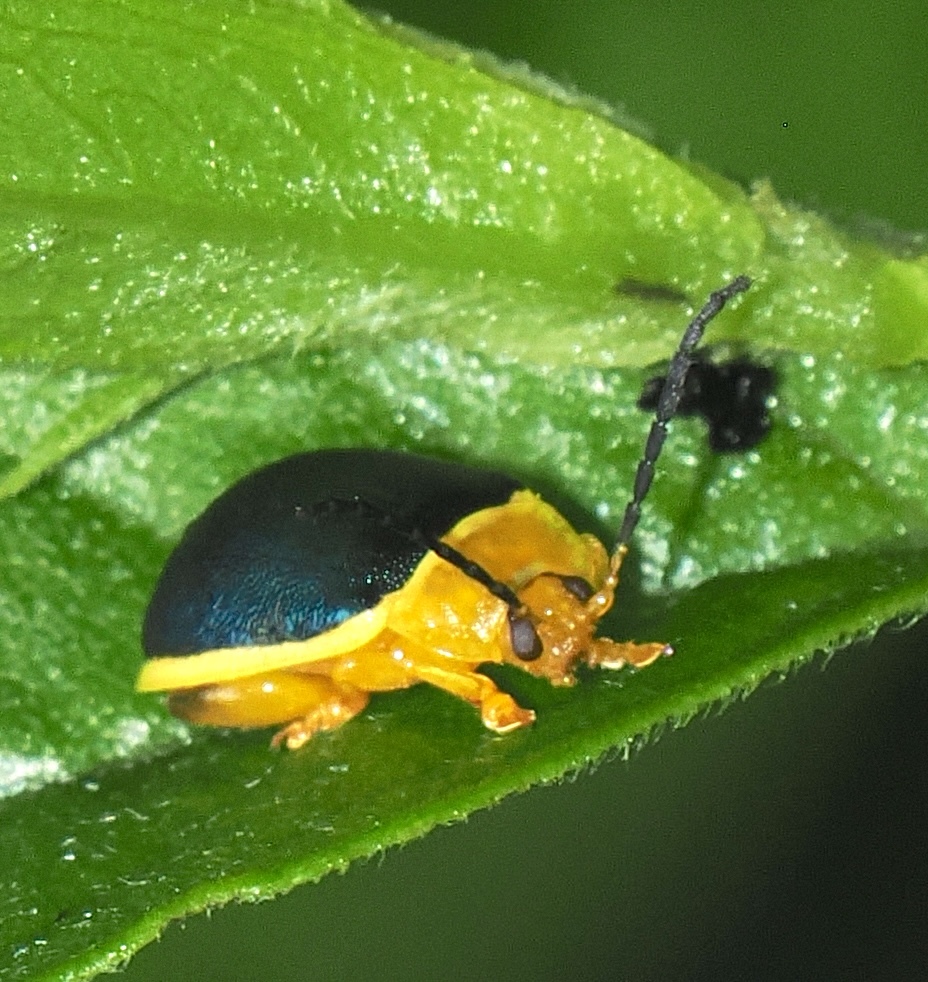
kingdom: Animalia
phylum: Arthropoda
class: Insecta
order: Coleoptera
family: Chrysomelidae
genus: Paranaita
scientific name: Paranaita
